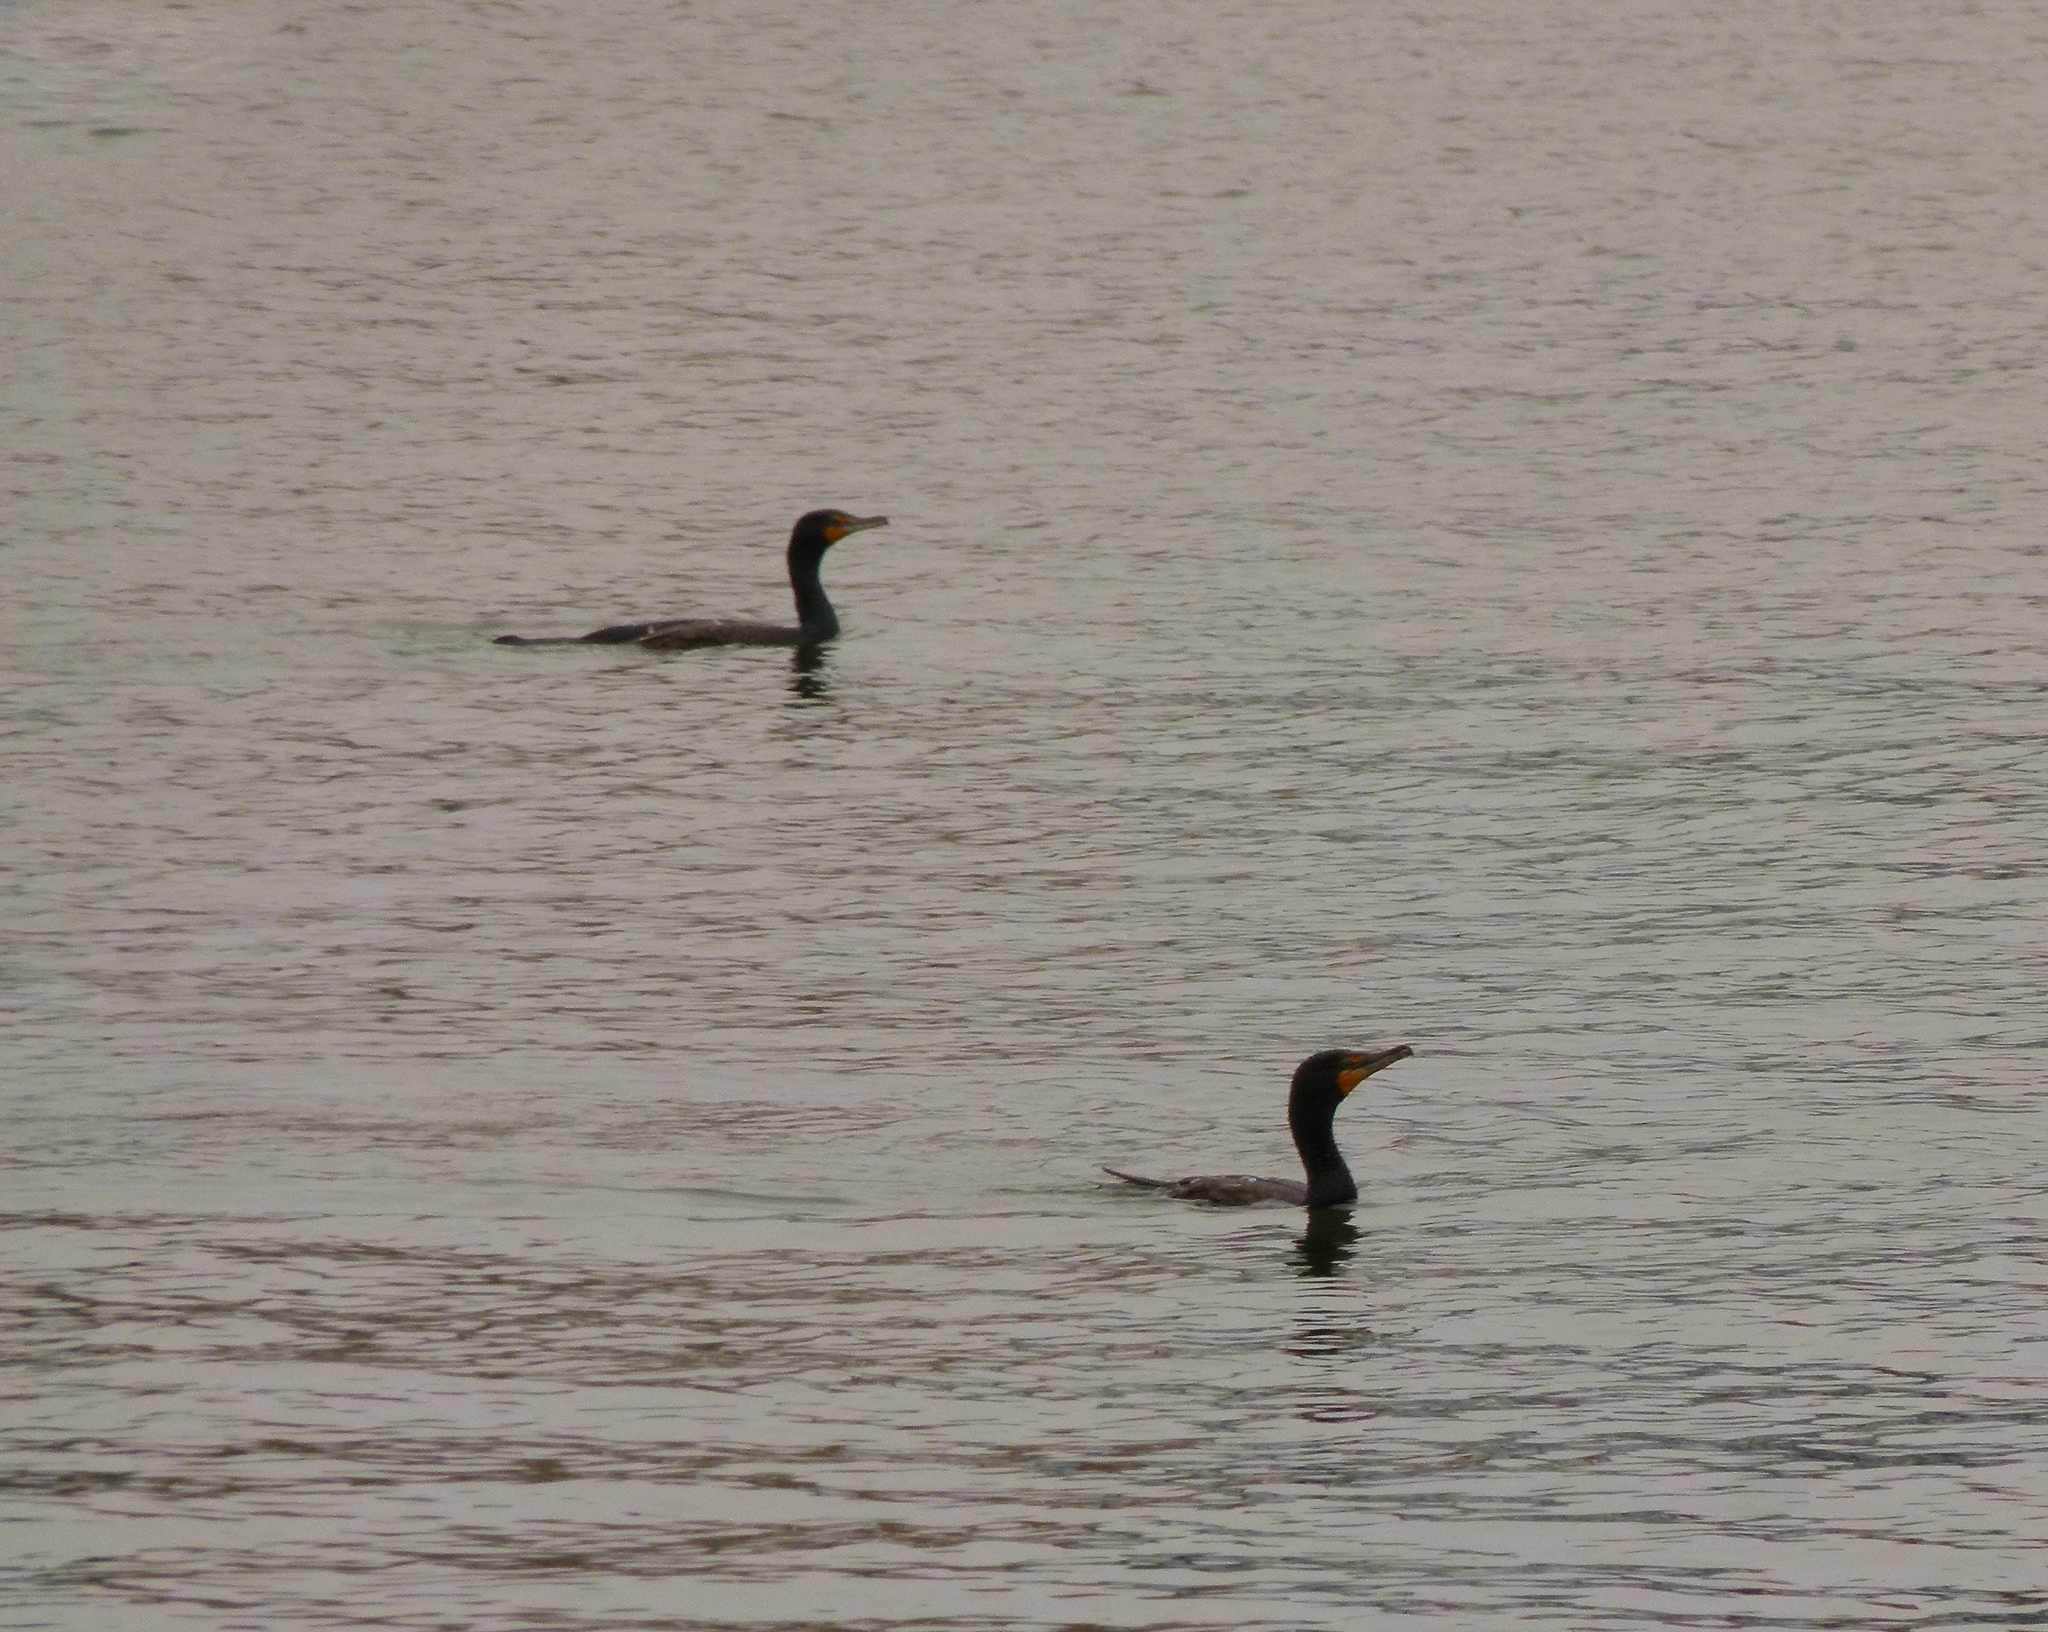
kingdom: Animalia
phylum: Chordata
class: Aves
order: Suliformes
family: Phalacrocoracidae
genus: Phalacrocorax
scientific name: Phalacrocorax auritus
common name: Double-crested cormorant
